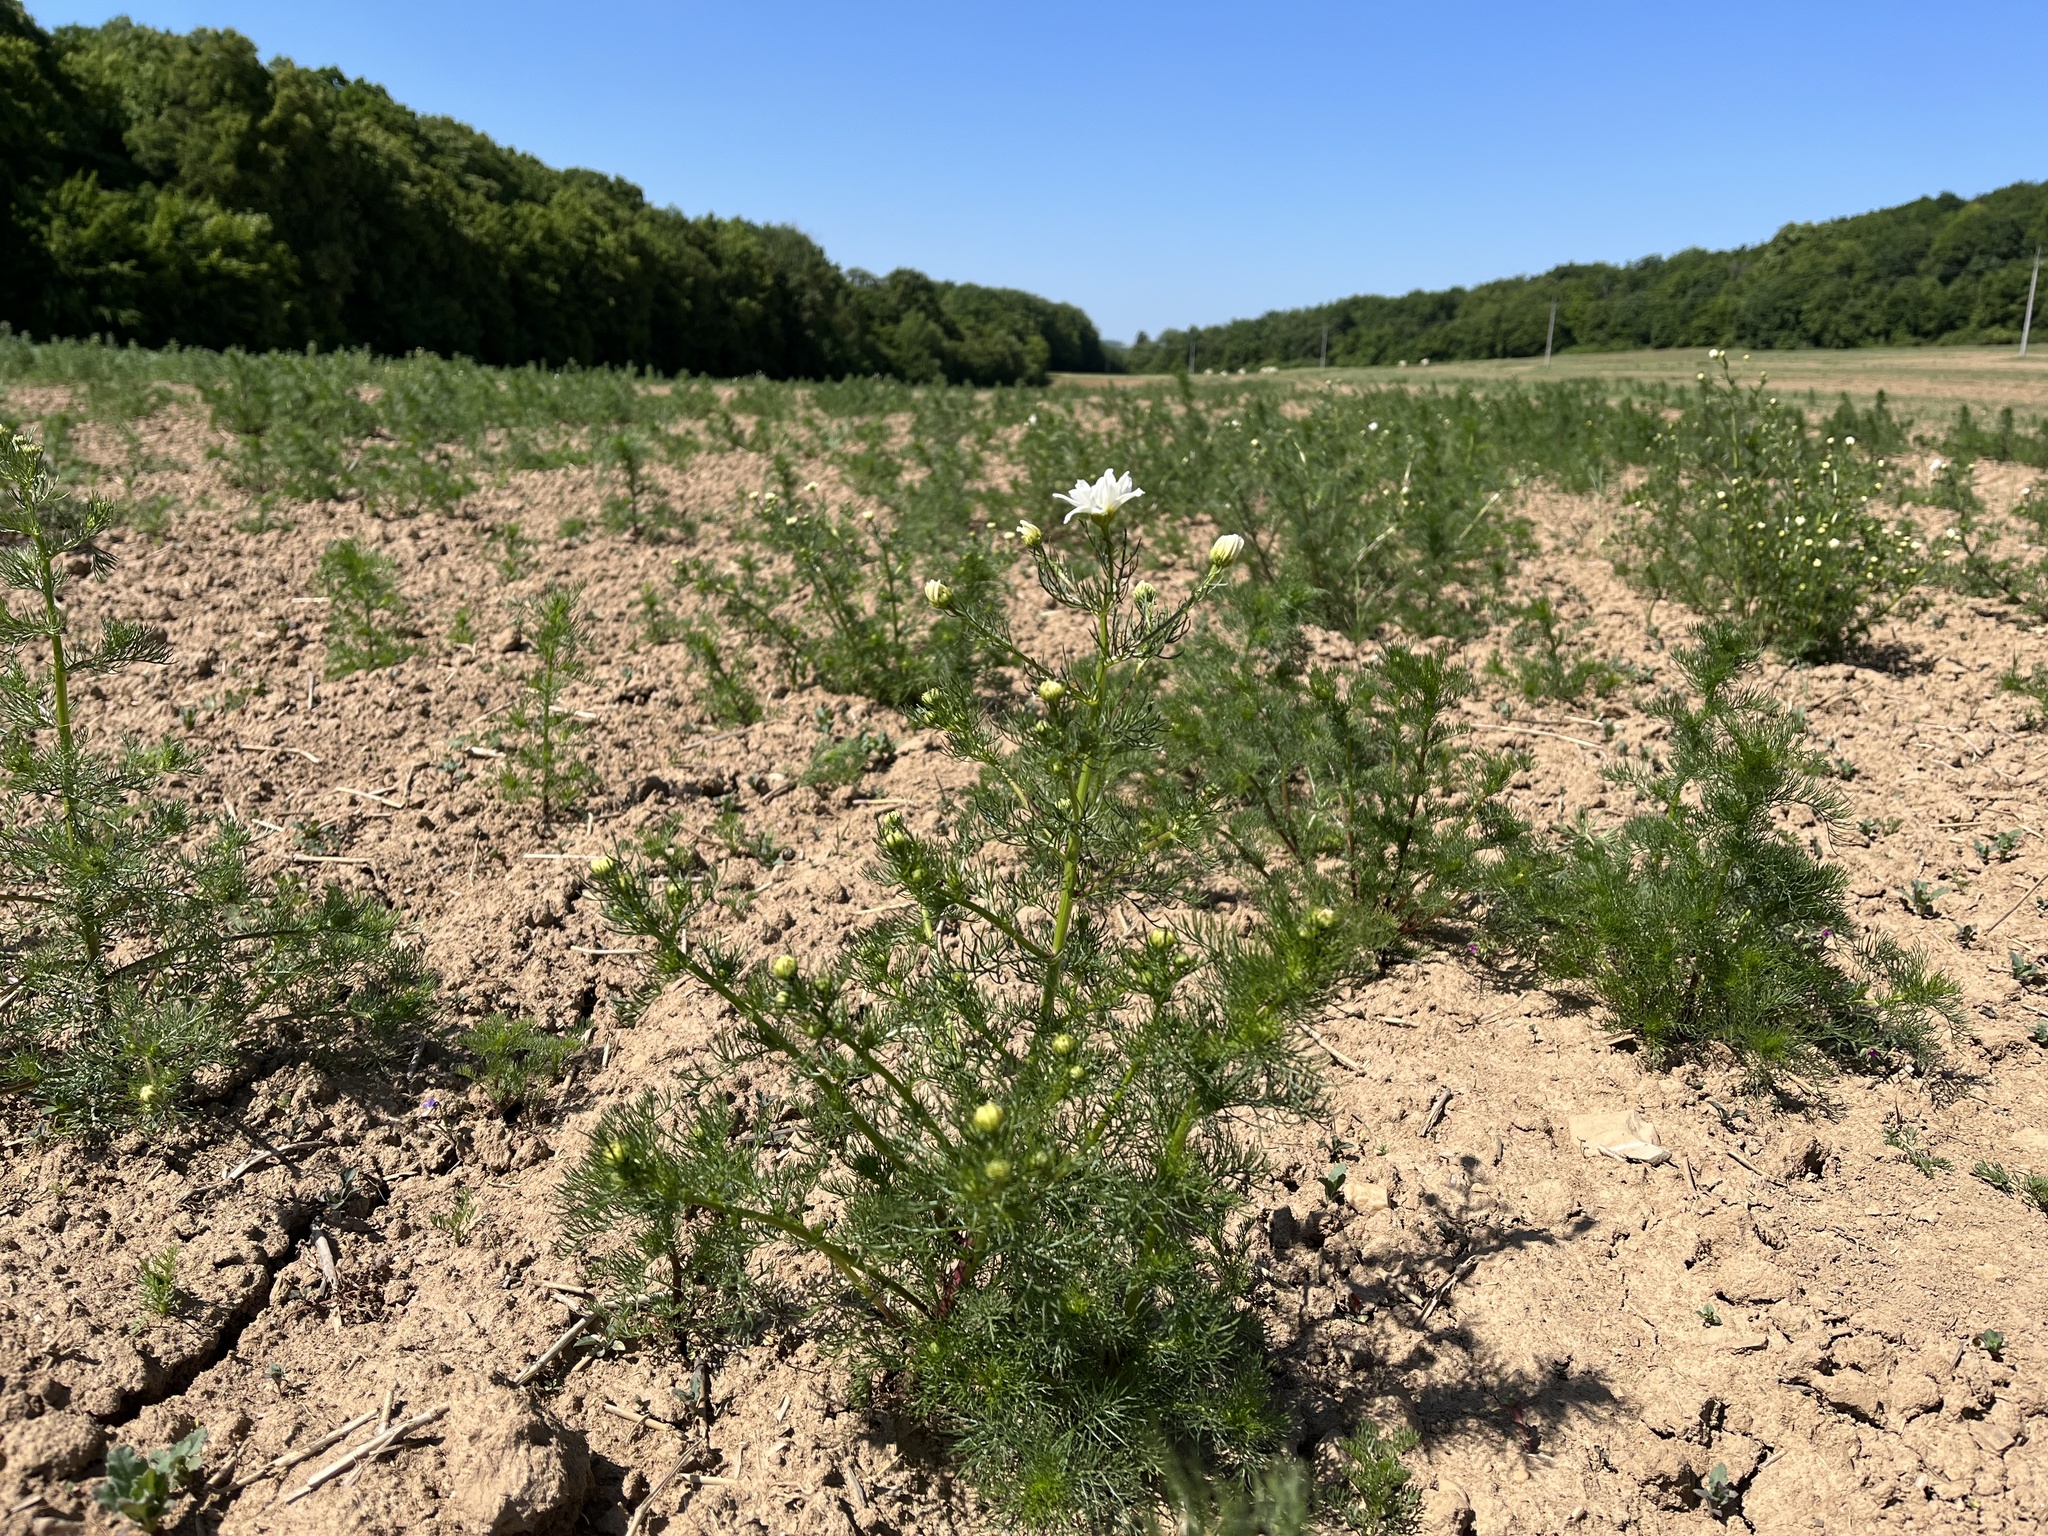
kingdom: Plantae
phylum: Tracheophyta
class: Magnoliopsida
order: Asterales
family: Asteraceae
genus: Tripleurospermum
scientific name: Tripleurospermum inodorum
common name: Scentless mayweed
